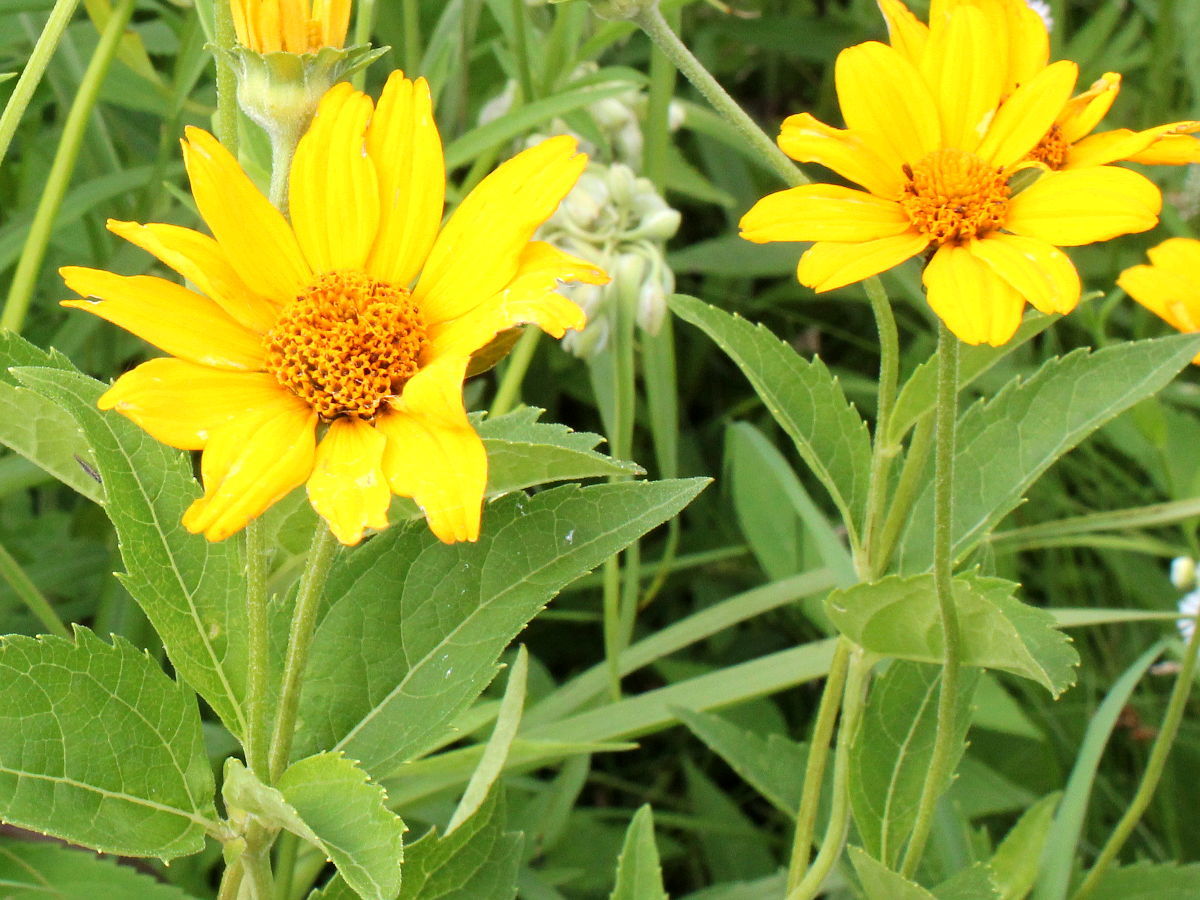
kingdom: Plantae
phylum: Tracheophyta
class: Magnoliopsida
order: Asterales
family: Asteraceae
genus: Heliopsis
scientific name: Heliopsis helianthoides
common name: False sunflower
